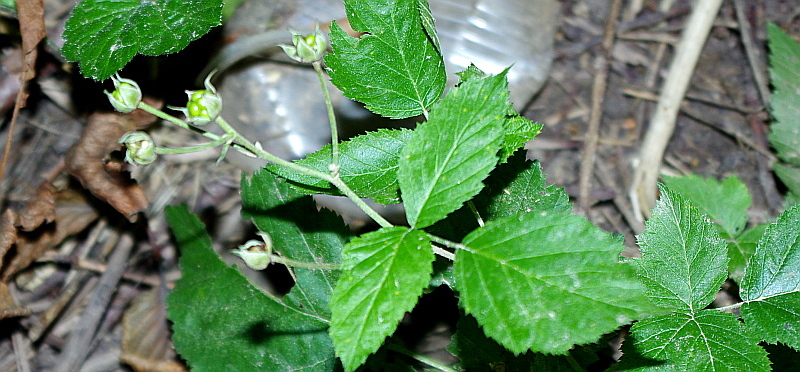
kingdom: Plantae
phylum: Tracheophyta
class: Magnoliopsida
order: Rosales
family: Rosaceae
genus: Rubus
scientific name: Rubus caesius
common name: Dewberry
